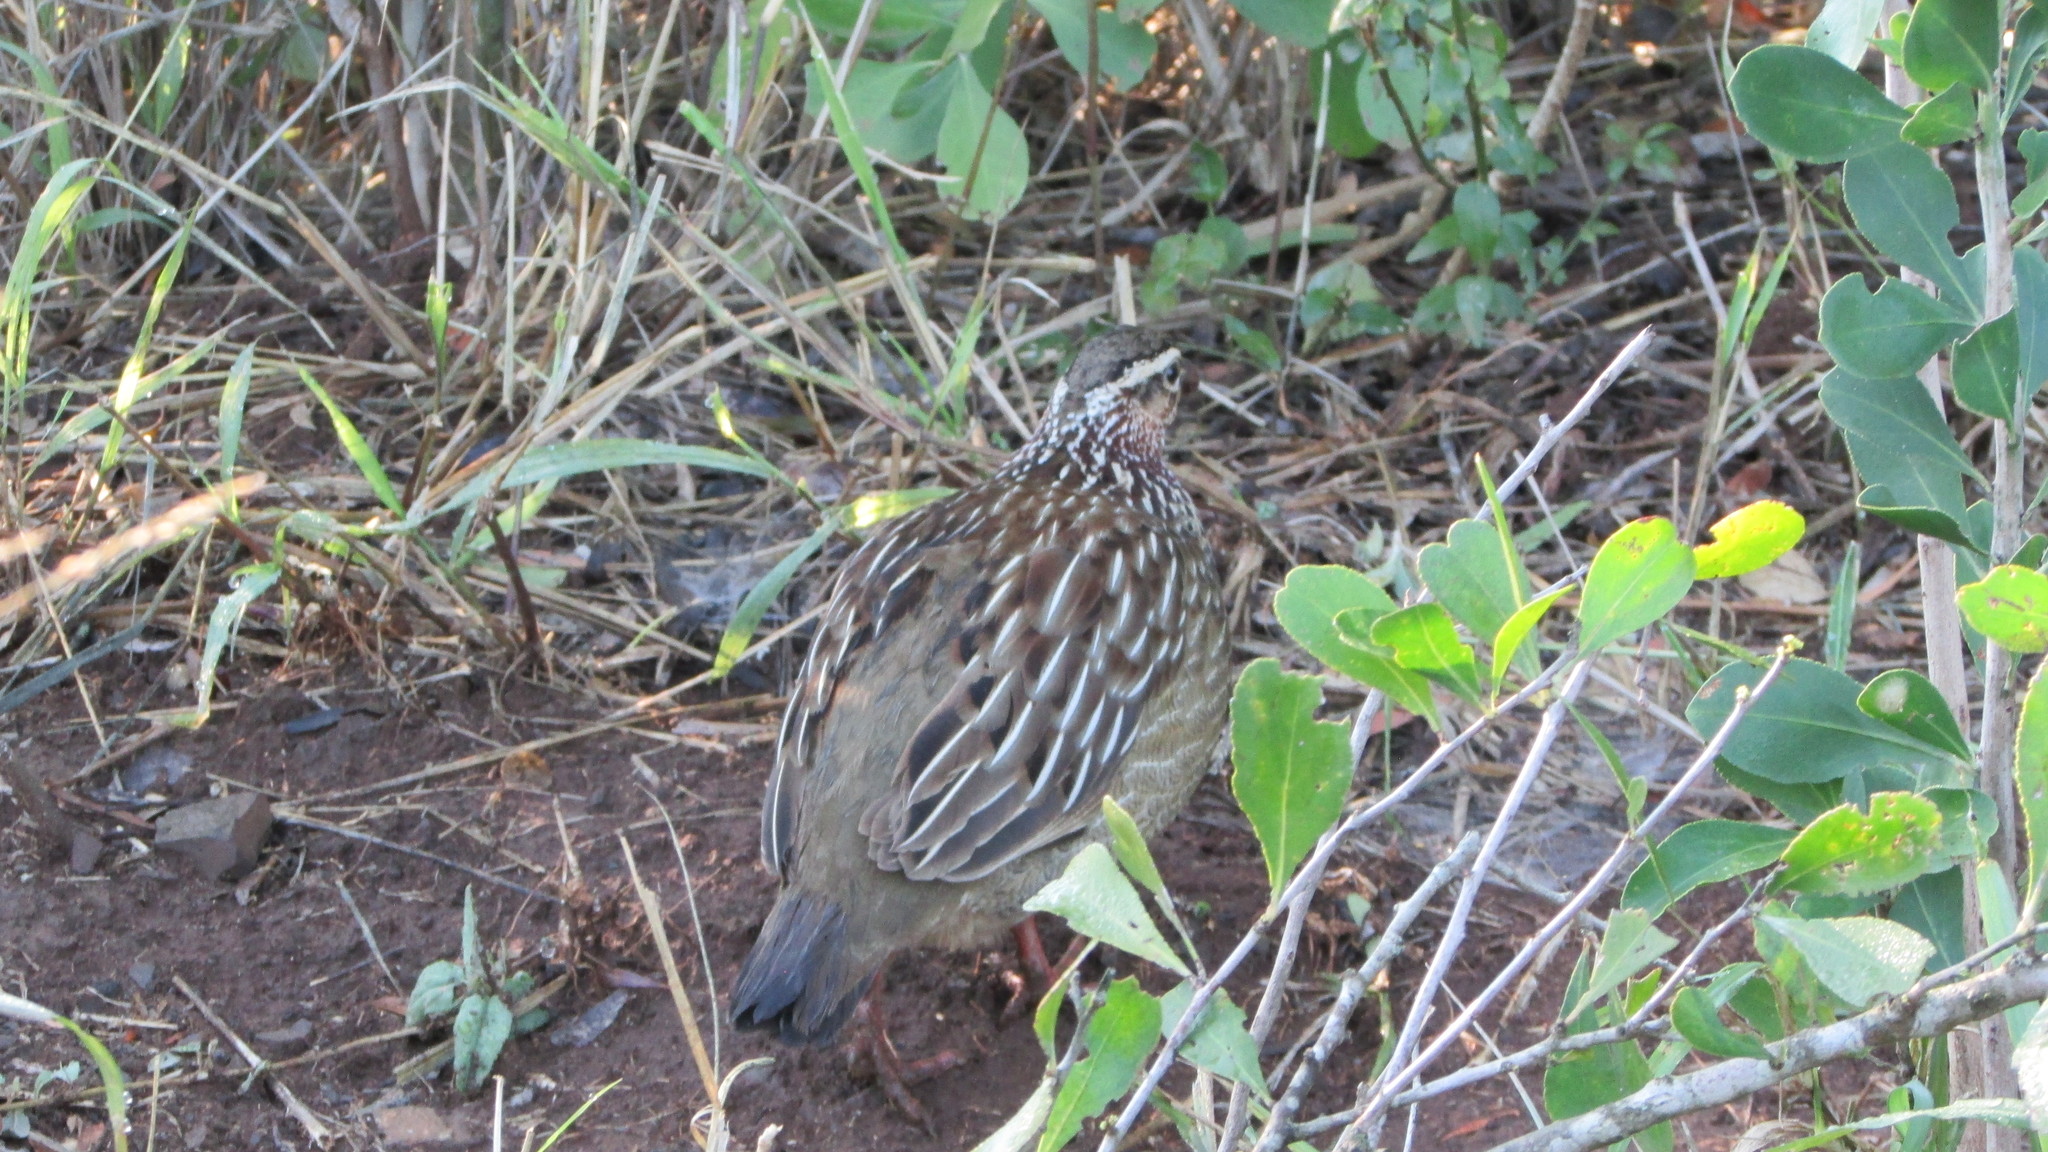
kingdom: Animalia
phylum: Chordata
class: Aves
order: Galliformes
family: Phasianidae
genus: Ortygornis
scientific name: Ortygornis sephaena
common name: Crested francolin
